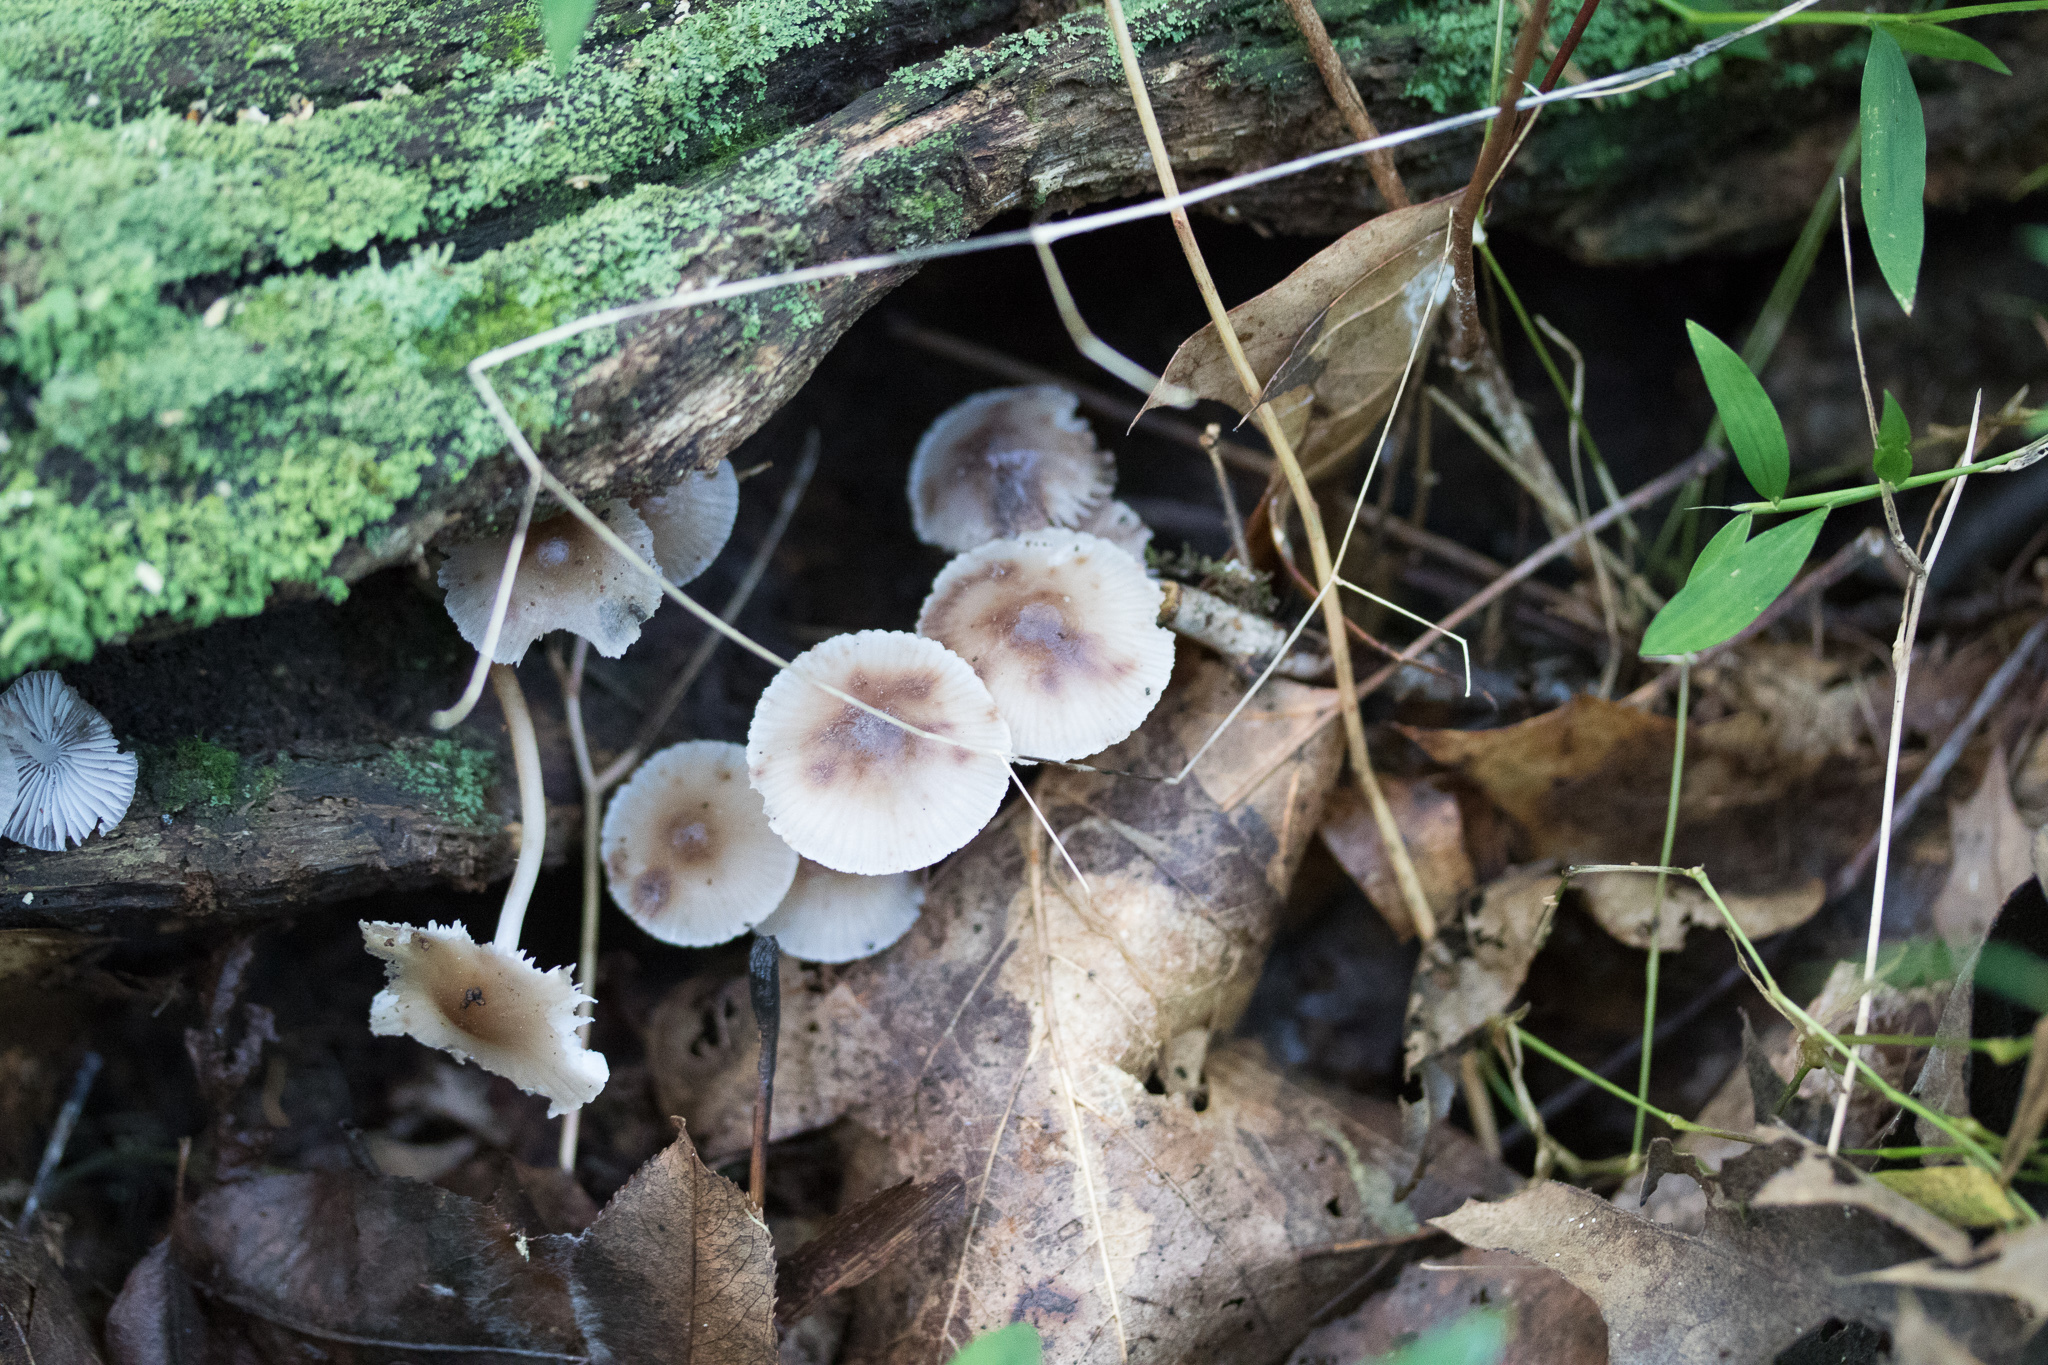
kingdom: Fungi
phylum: Basidiomycota
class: Agaricomycetes
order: Agaricales
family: Mycenaceae
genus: Mycena
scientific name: Mycena inclinata
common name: Clustered bonnet
